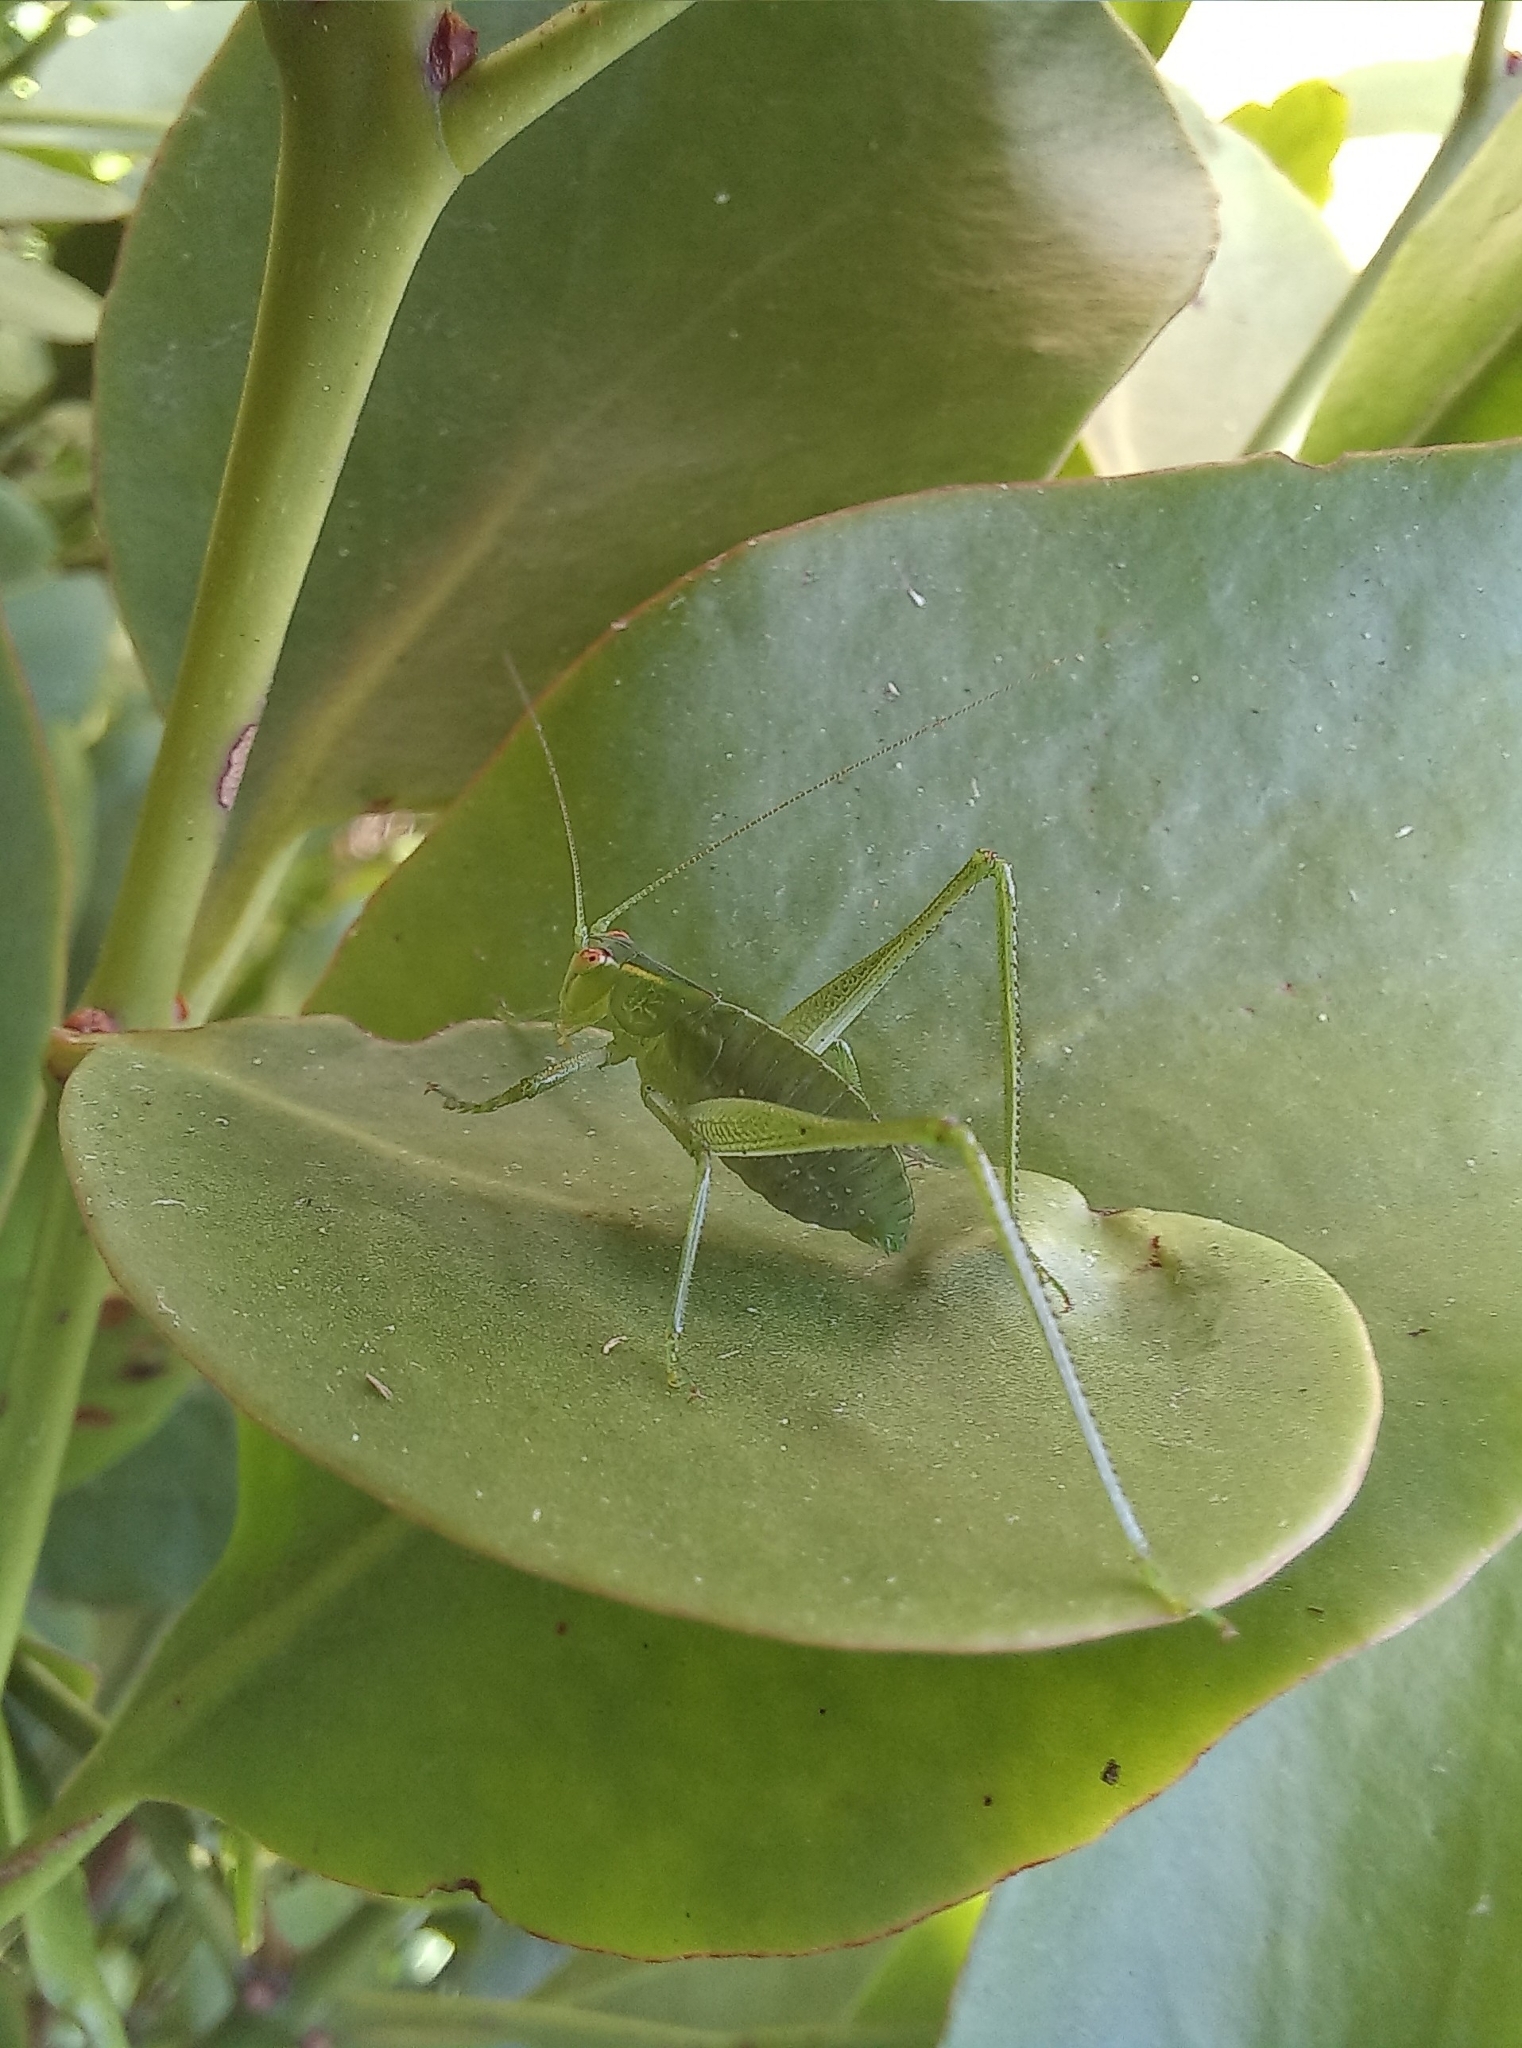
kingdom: Animalia
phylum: Arthropoda
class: Insecta
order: Orthoptera
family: Tettigoniidae
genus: Caedicia
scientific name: Caedicia simplex
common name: Common garden katydid
